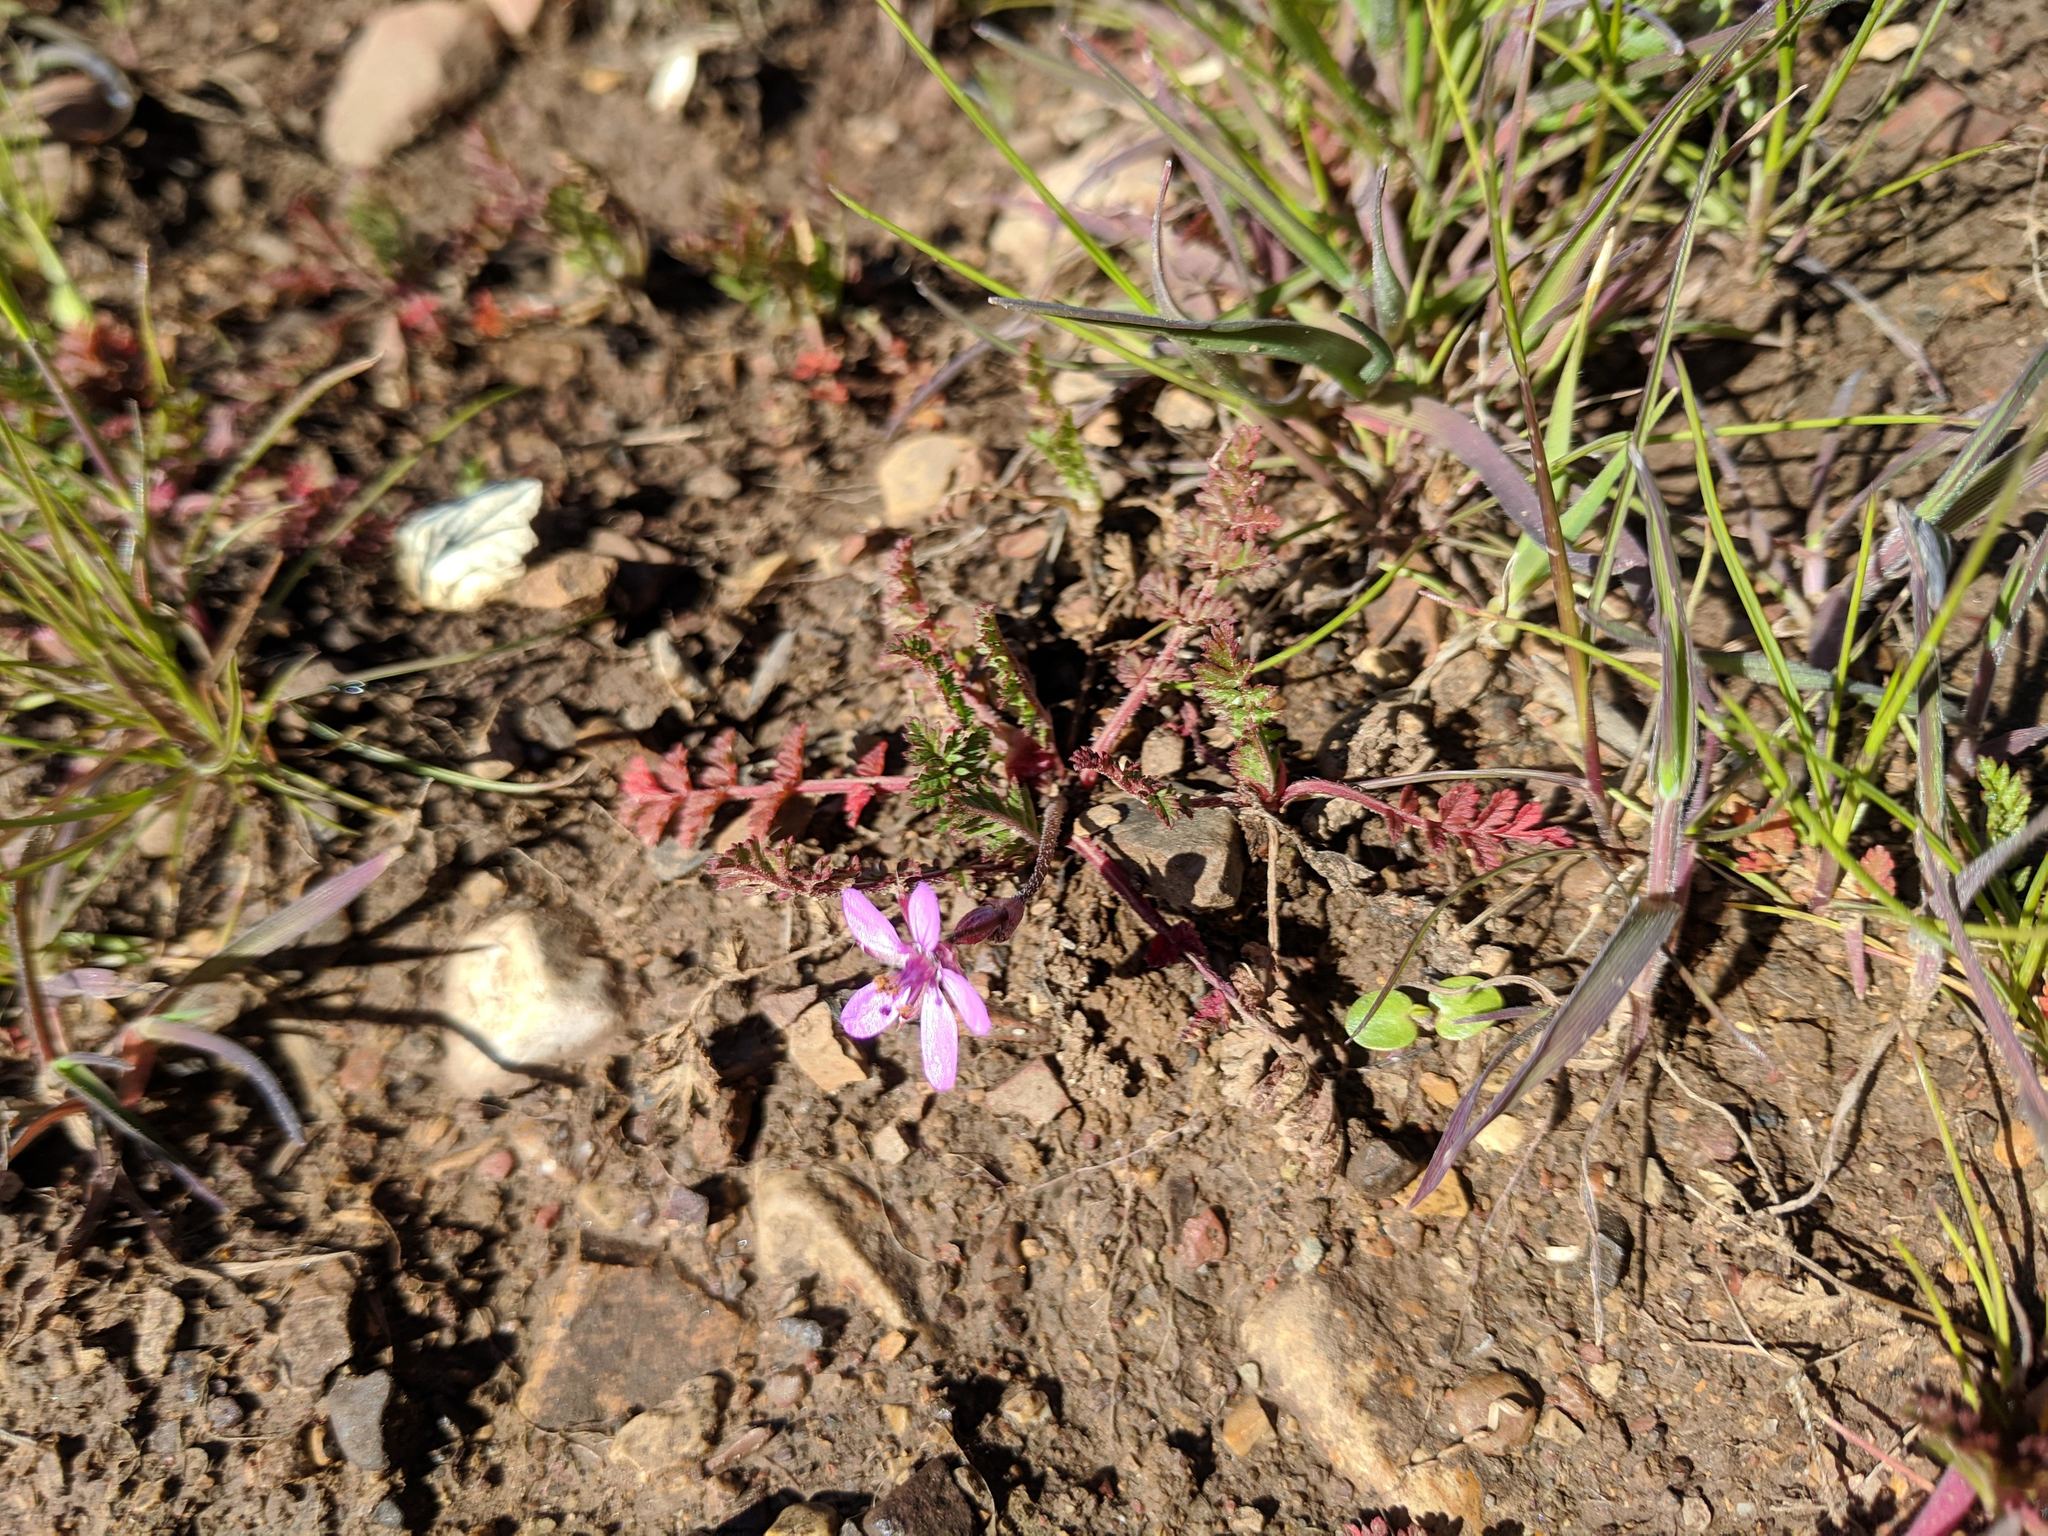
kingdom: Plantae
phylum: Tracheophyta
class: Magnoliopsida
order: Geraniales
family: Geraniaceae
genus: Erodium
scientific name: Erodium cicutarium
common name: Common stork's-bill
